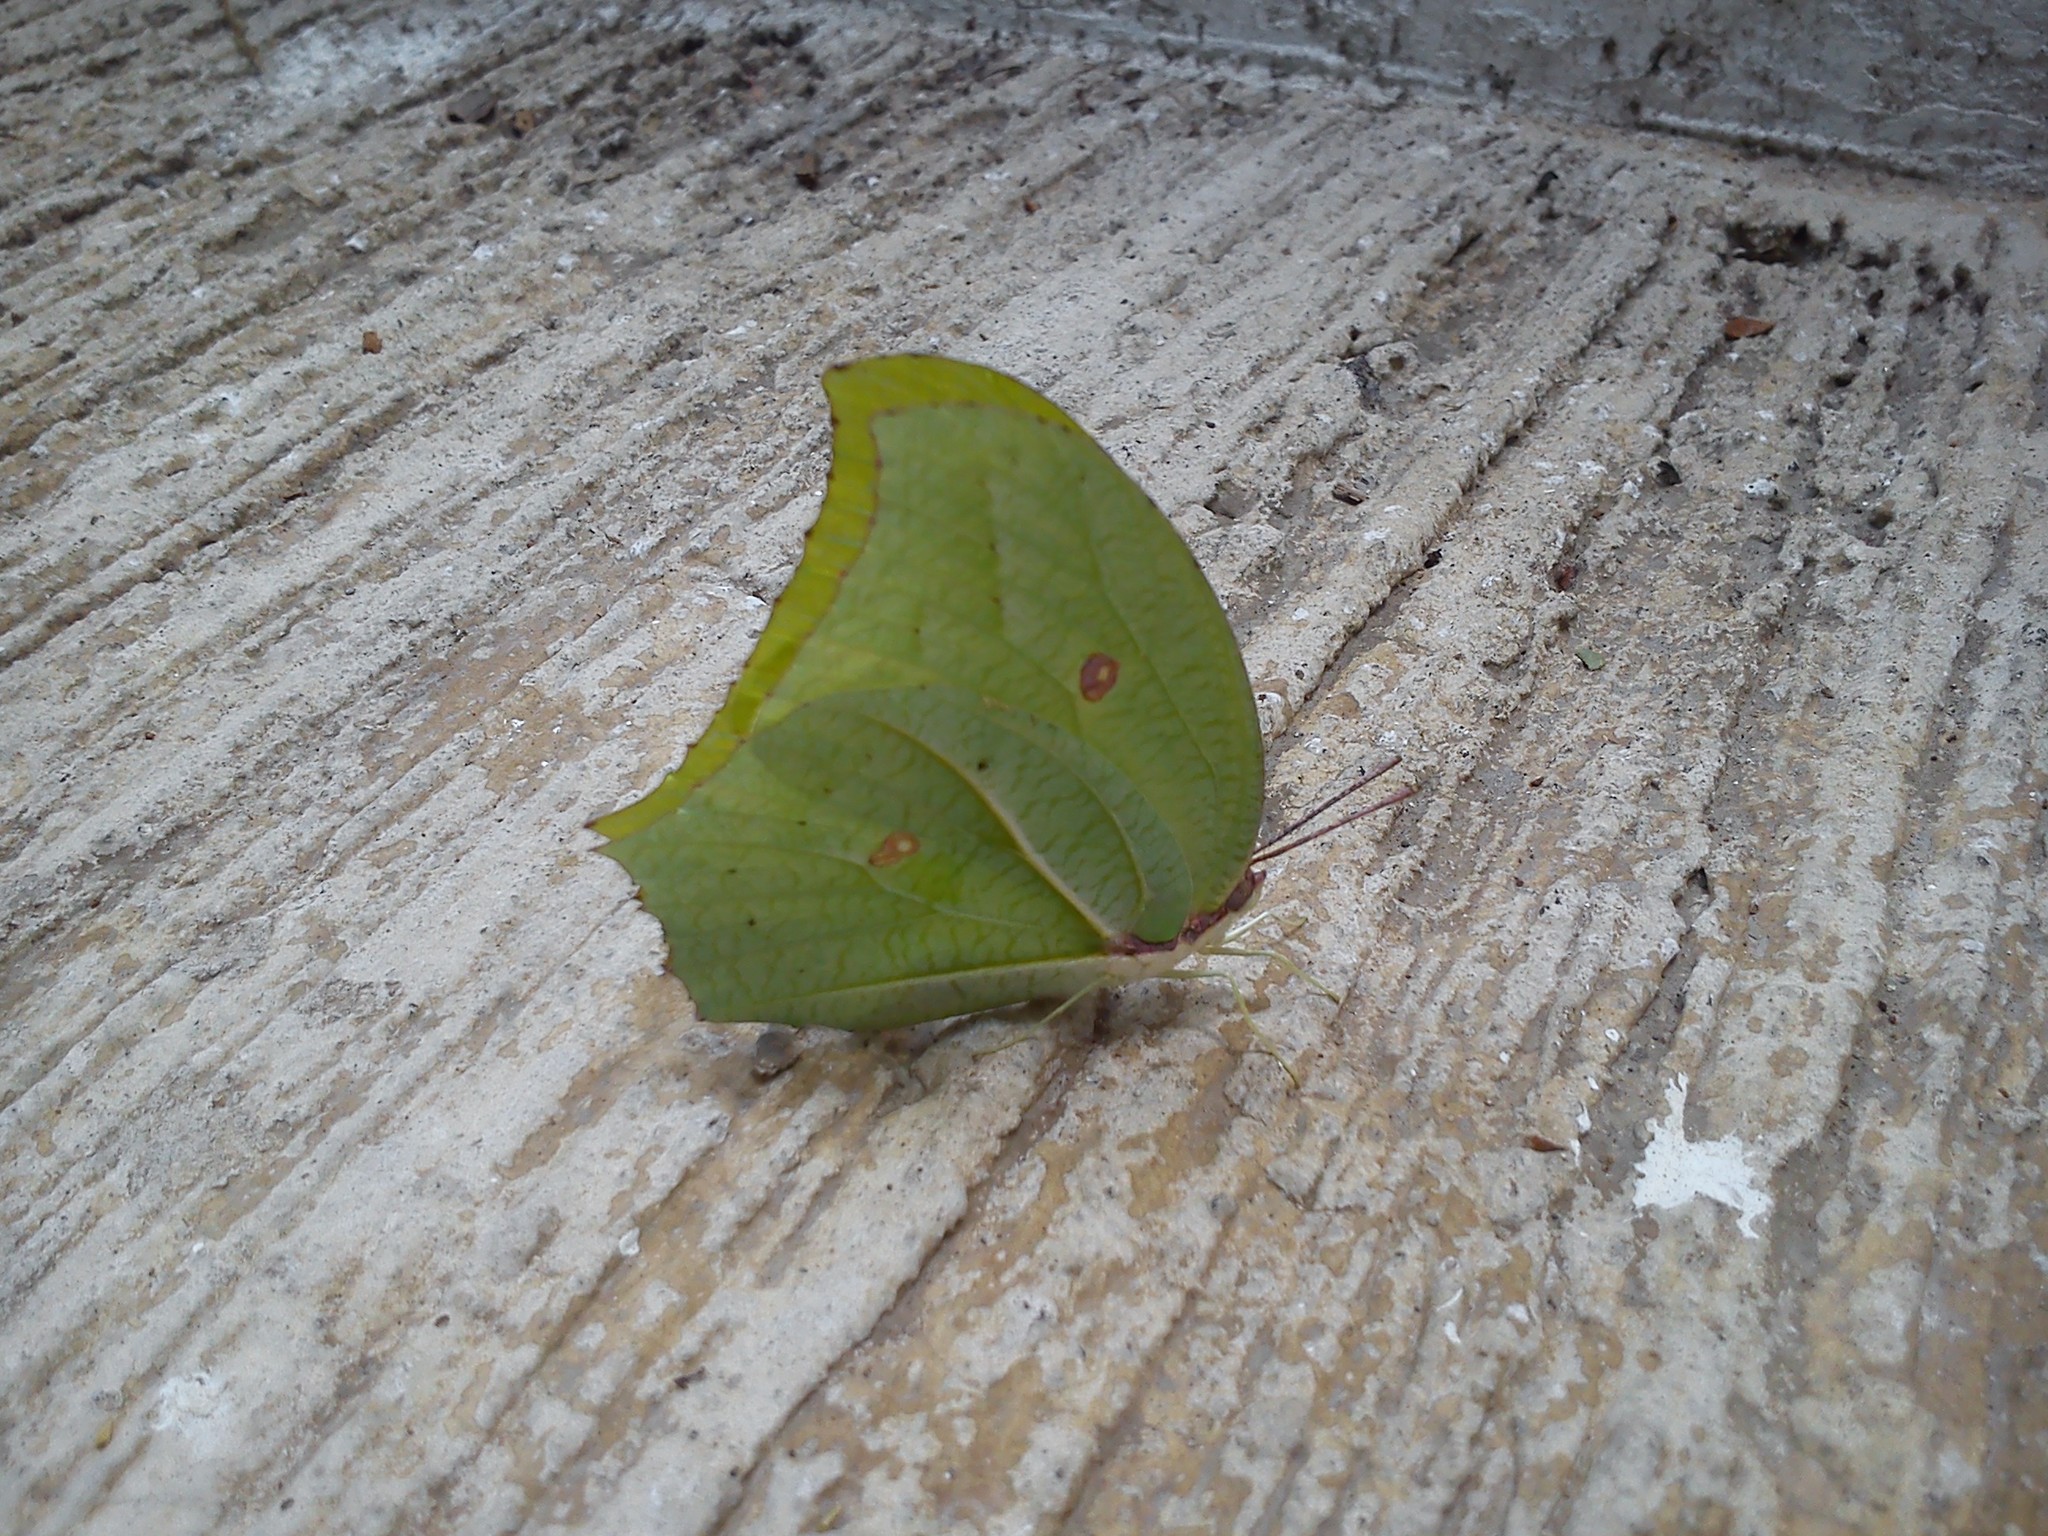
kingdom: Animalia
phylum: Arthropoda
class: Insecta
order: Lepidoptera
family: Pieridae
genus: Anteos
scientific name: Anteos maerula
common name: Angled sulphur
